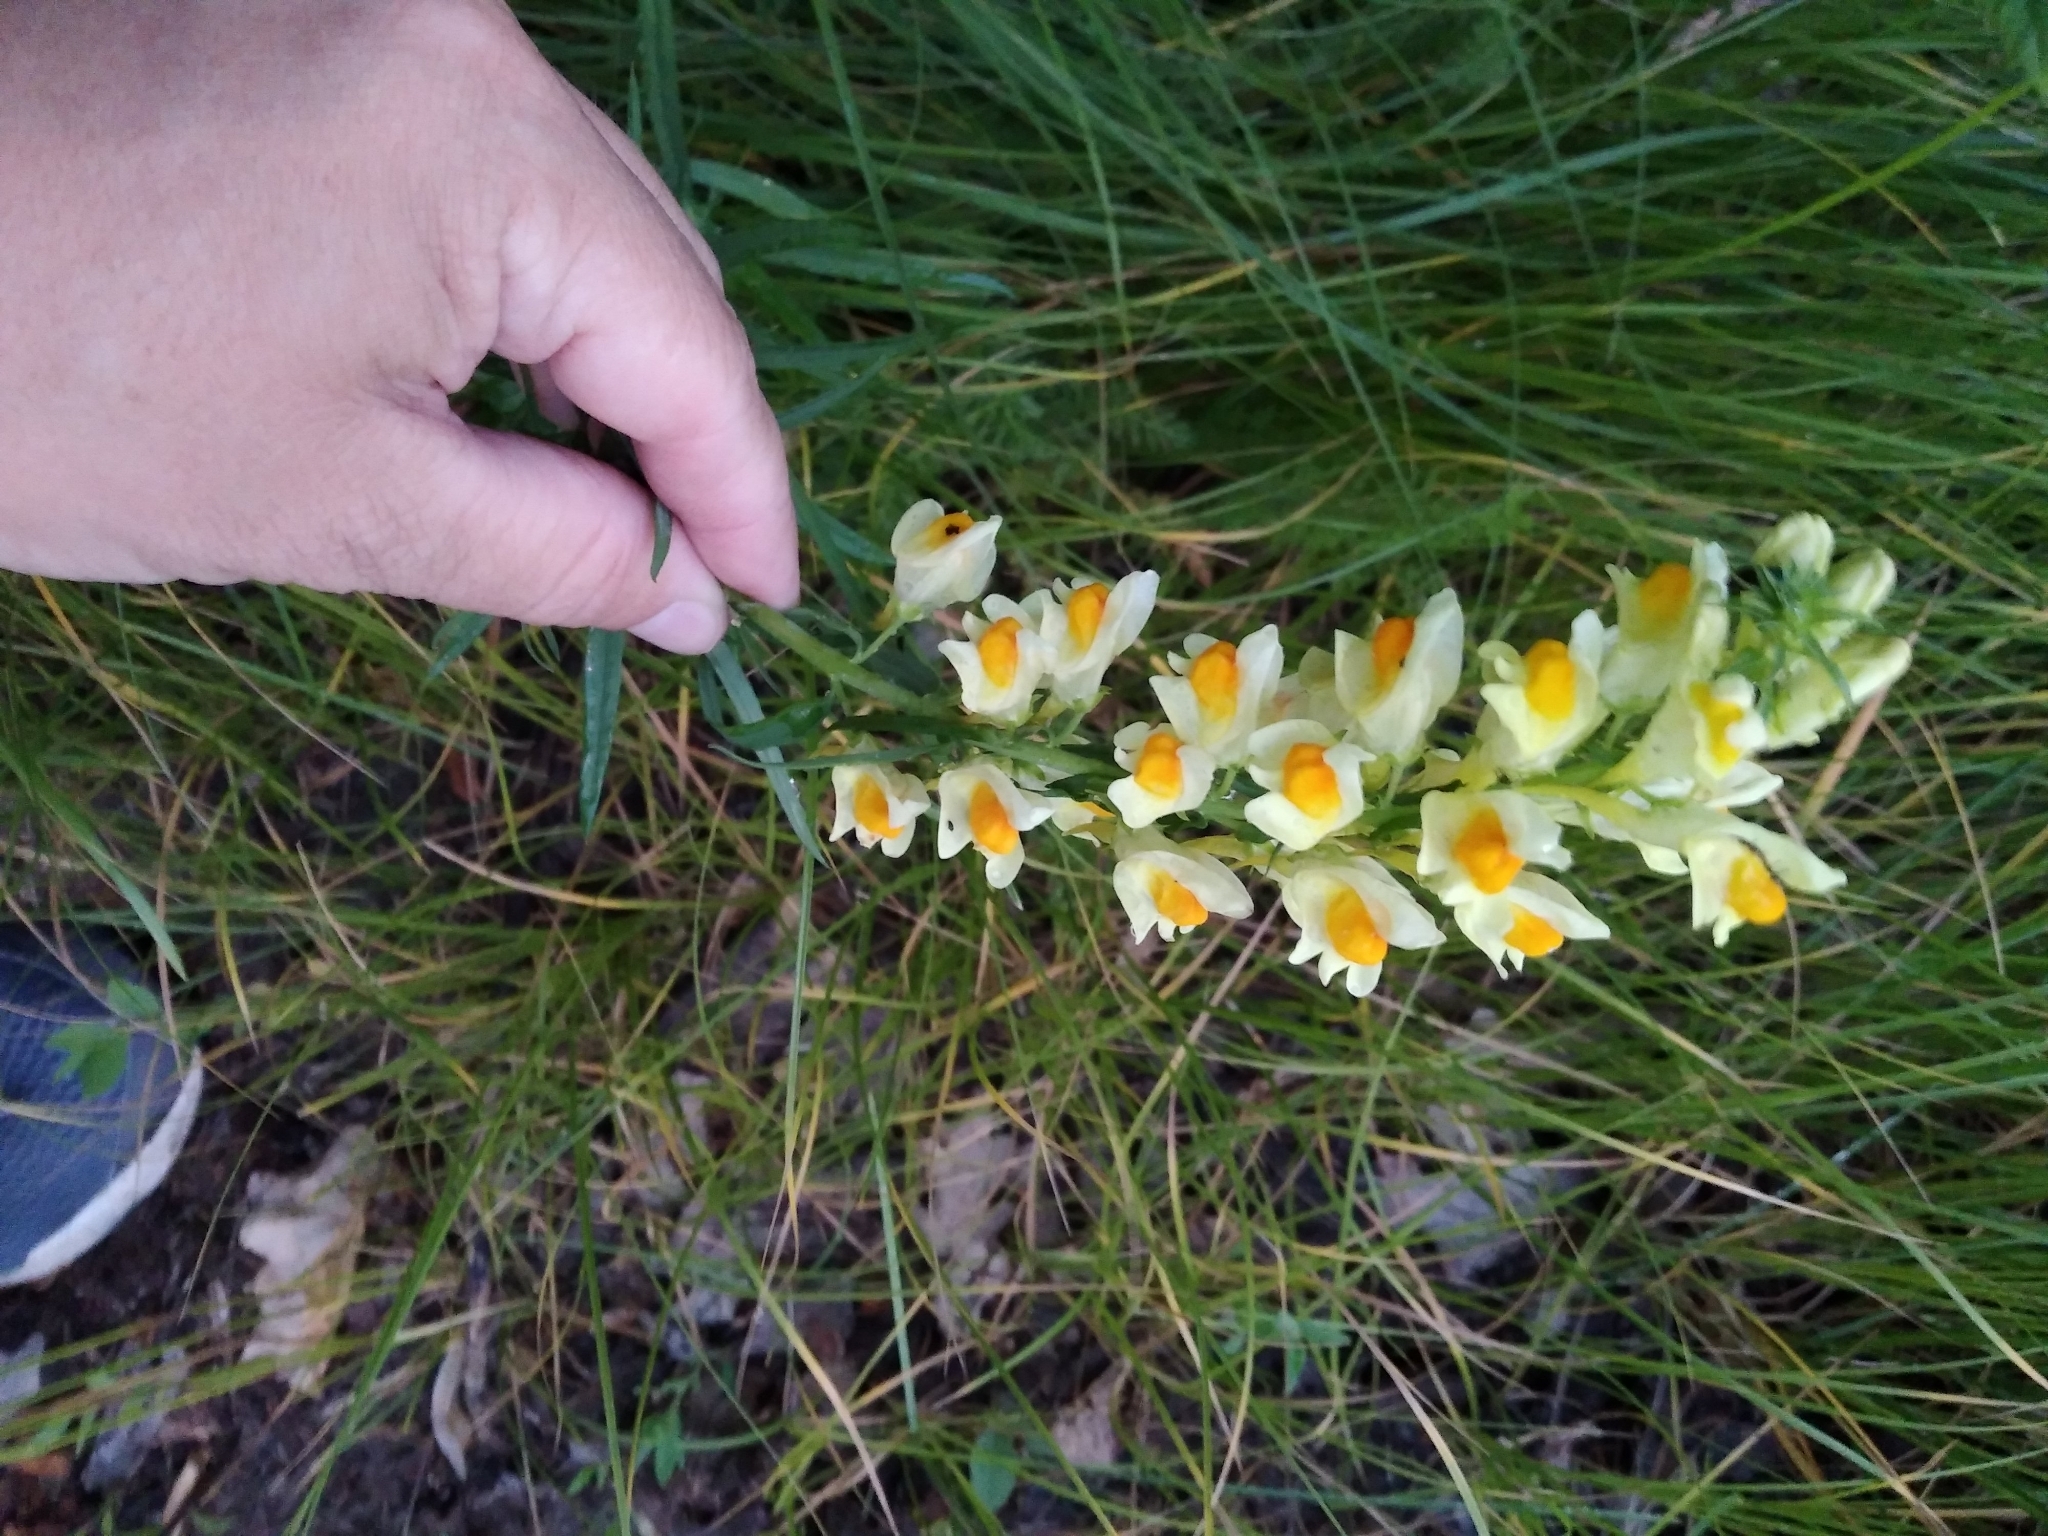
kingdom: Plantae
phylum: Tracheophyta
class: Magnoliopsida
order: Lamiales
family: Plantaginaceae
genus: Linaria
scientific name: Linaria vulgaris
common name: Butter and eggs
